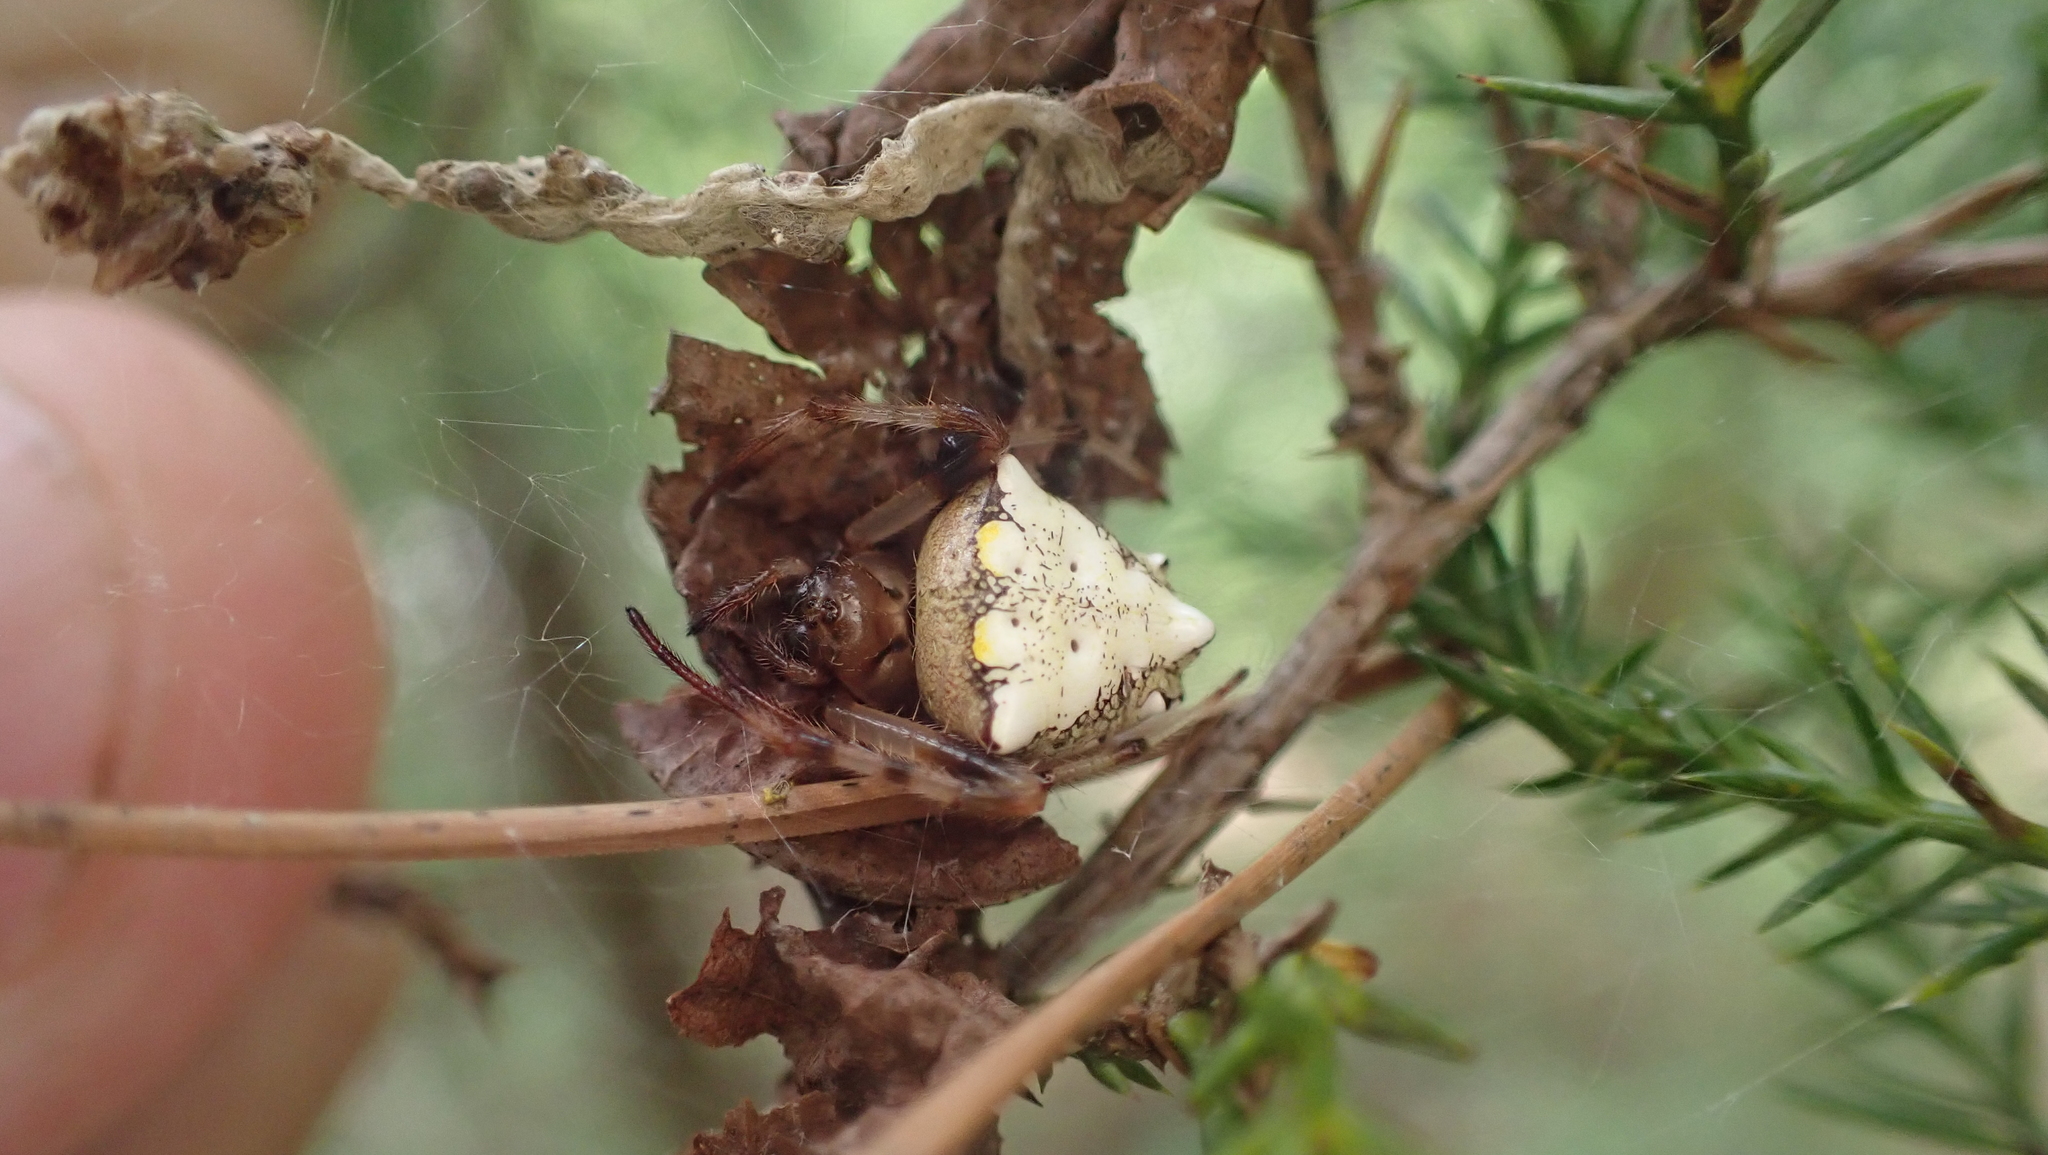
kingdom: Animalia
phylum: Arthropoda
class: Arachnida
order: Araneae
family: Araneidae
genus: Verrucosa
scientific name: Verrucosa arenata
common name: Orb weavers
